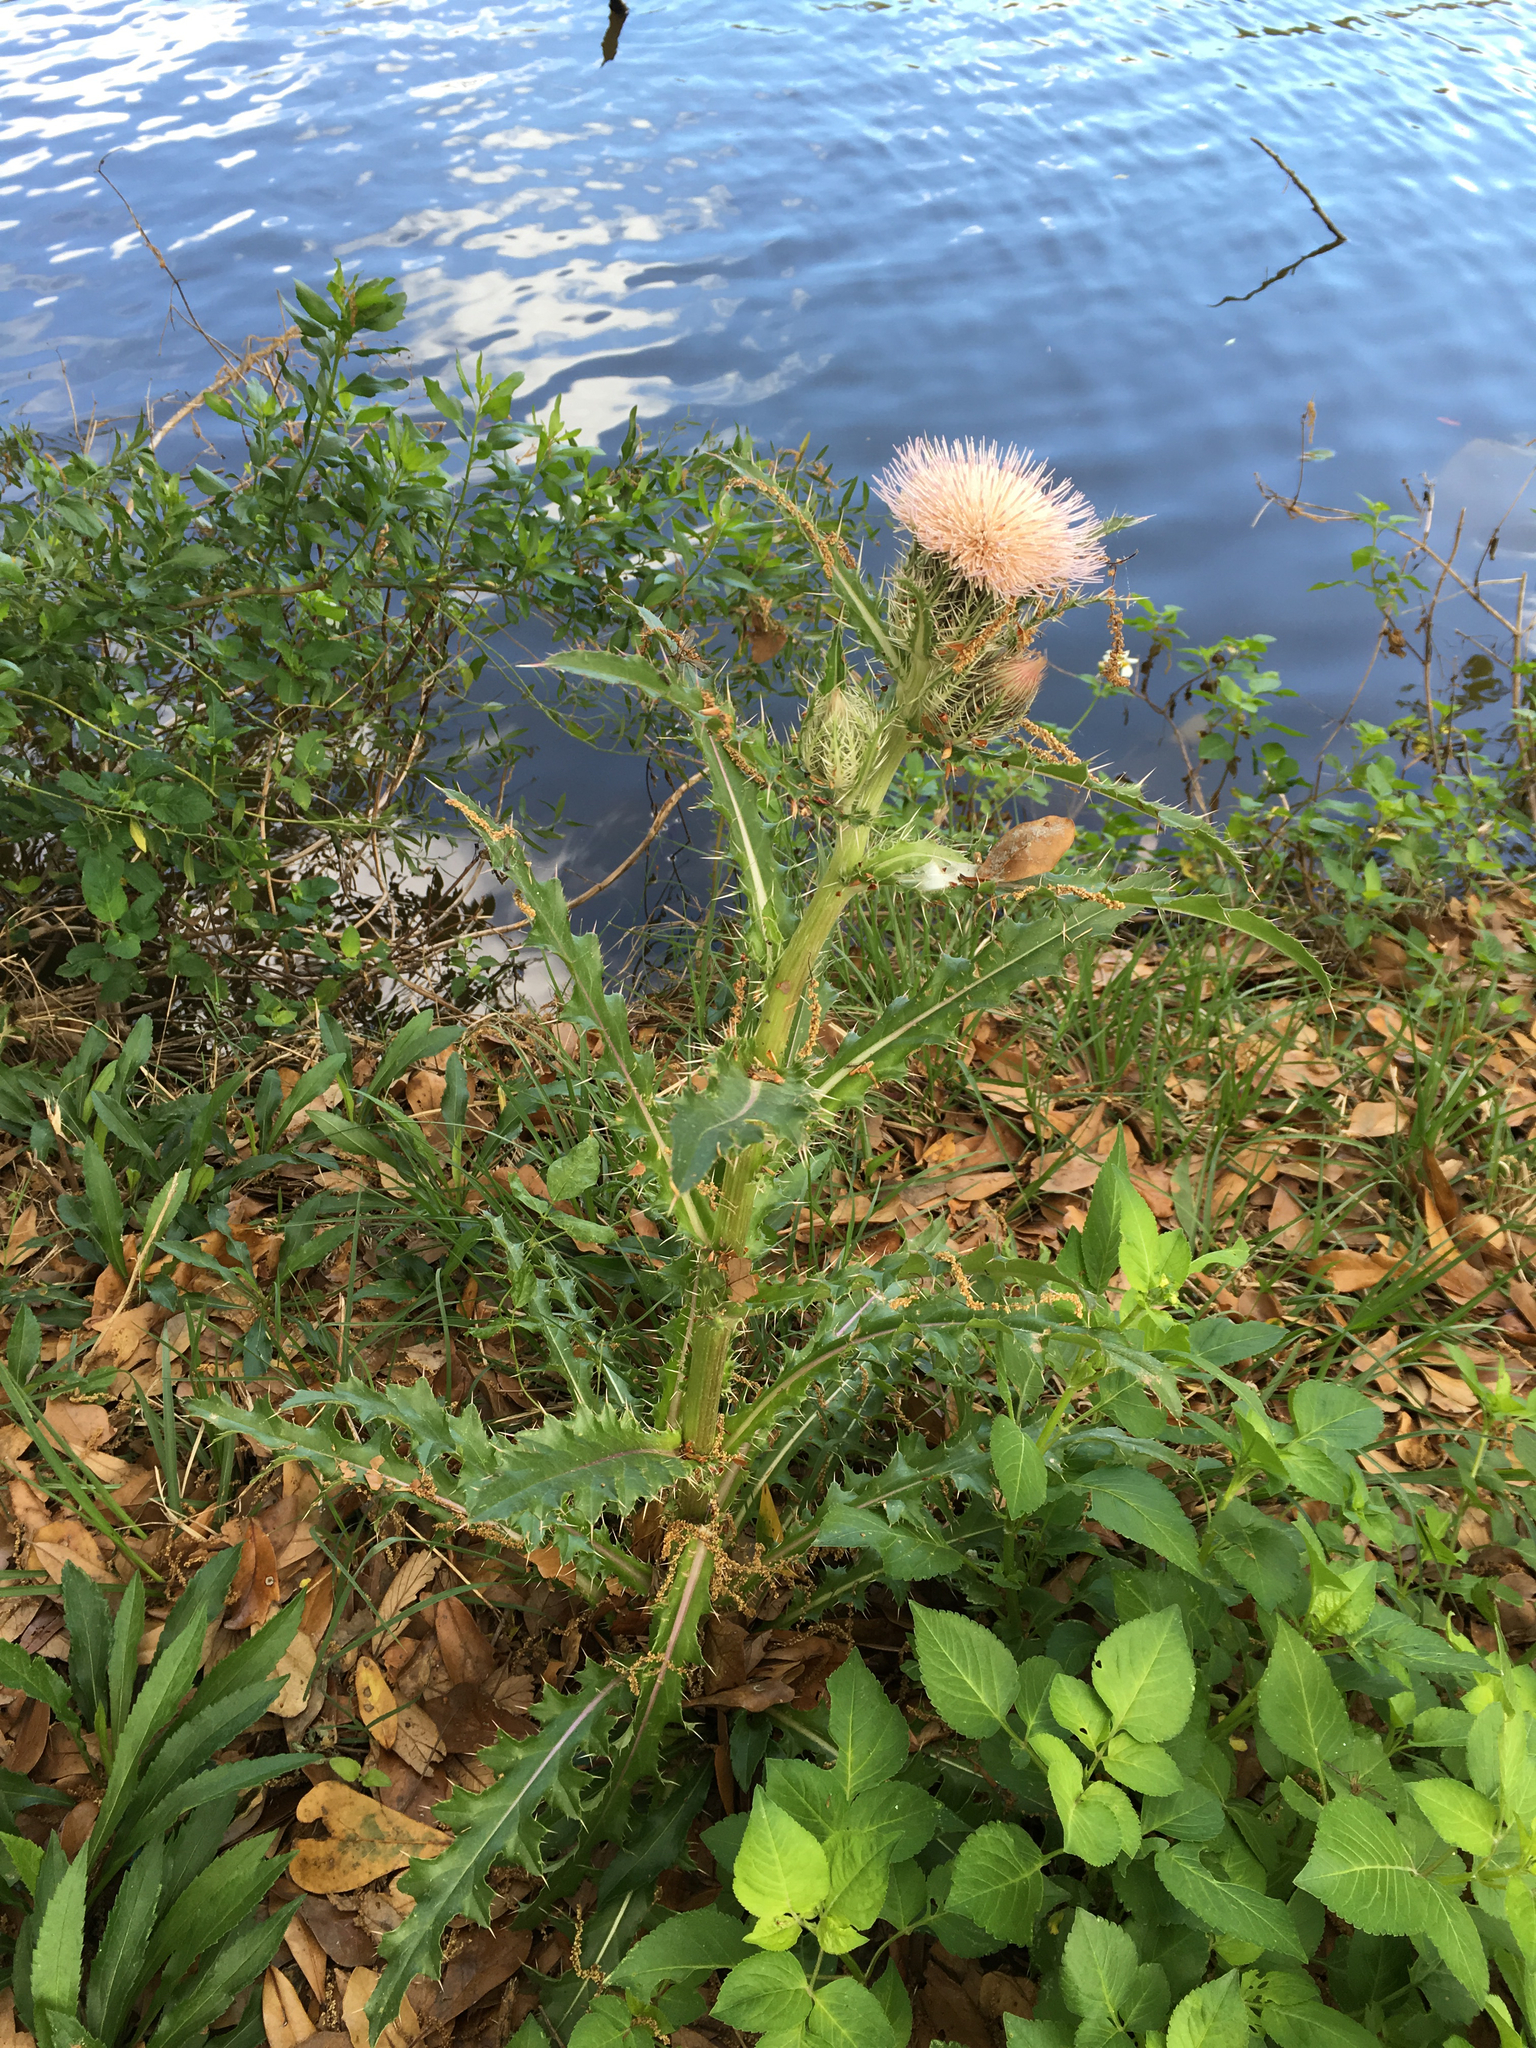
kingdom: Plantae
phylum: Tracheophyta
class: Magnoliopsida
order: Asterales
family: Asteraceae
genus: Cirsium
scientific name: Cirsium horridulum
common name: Bristly thistle
